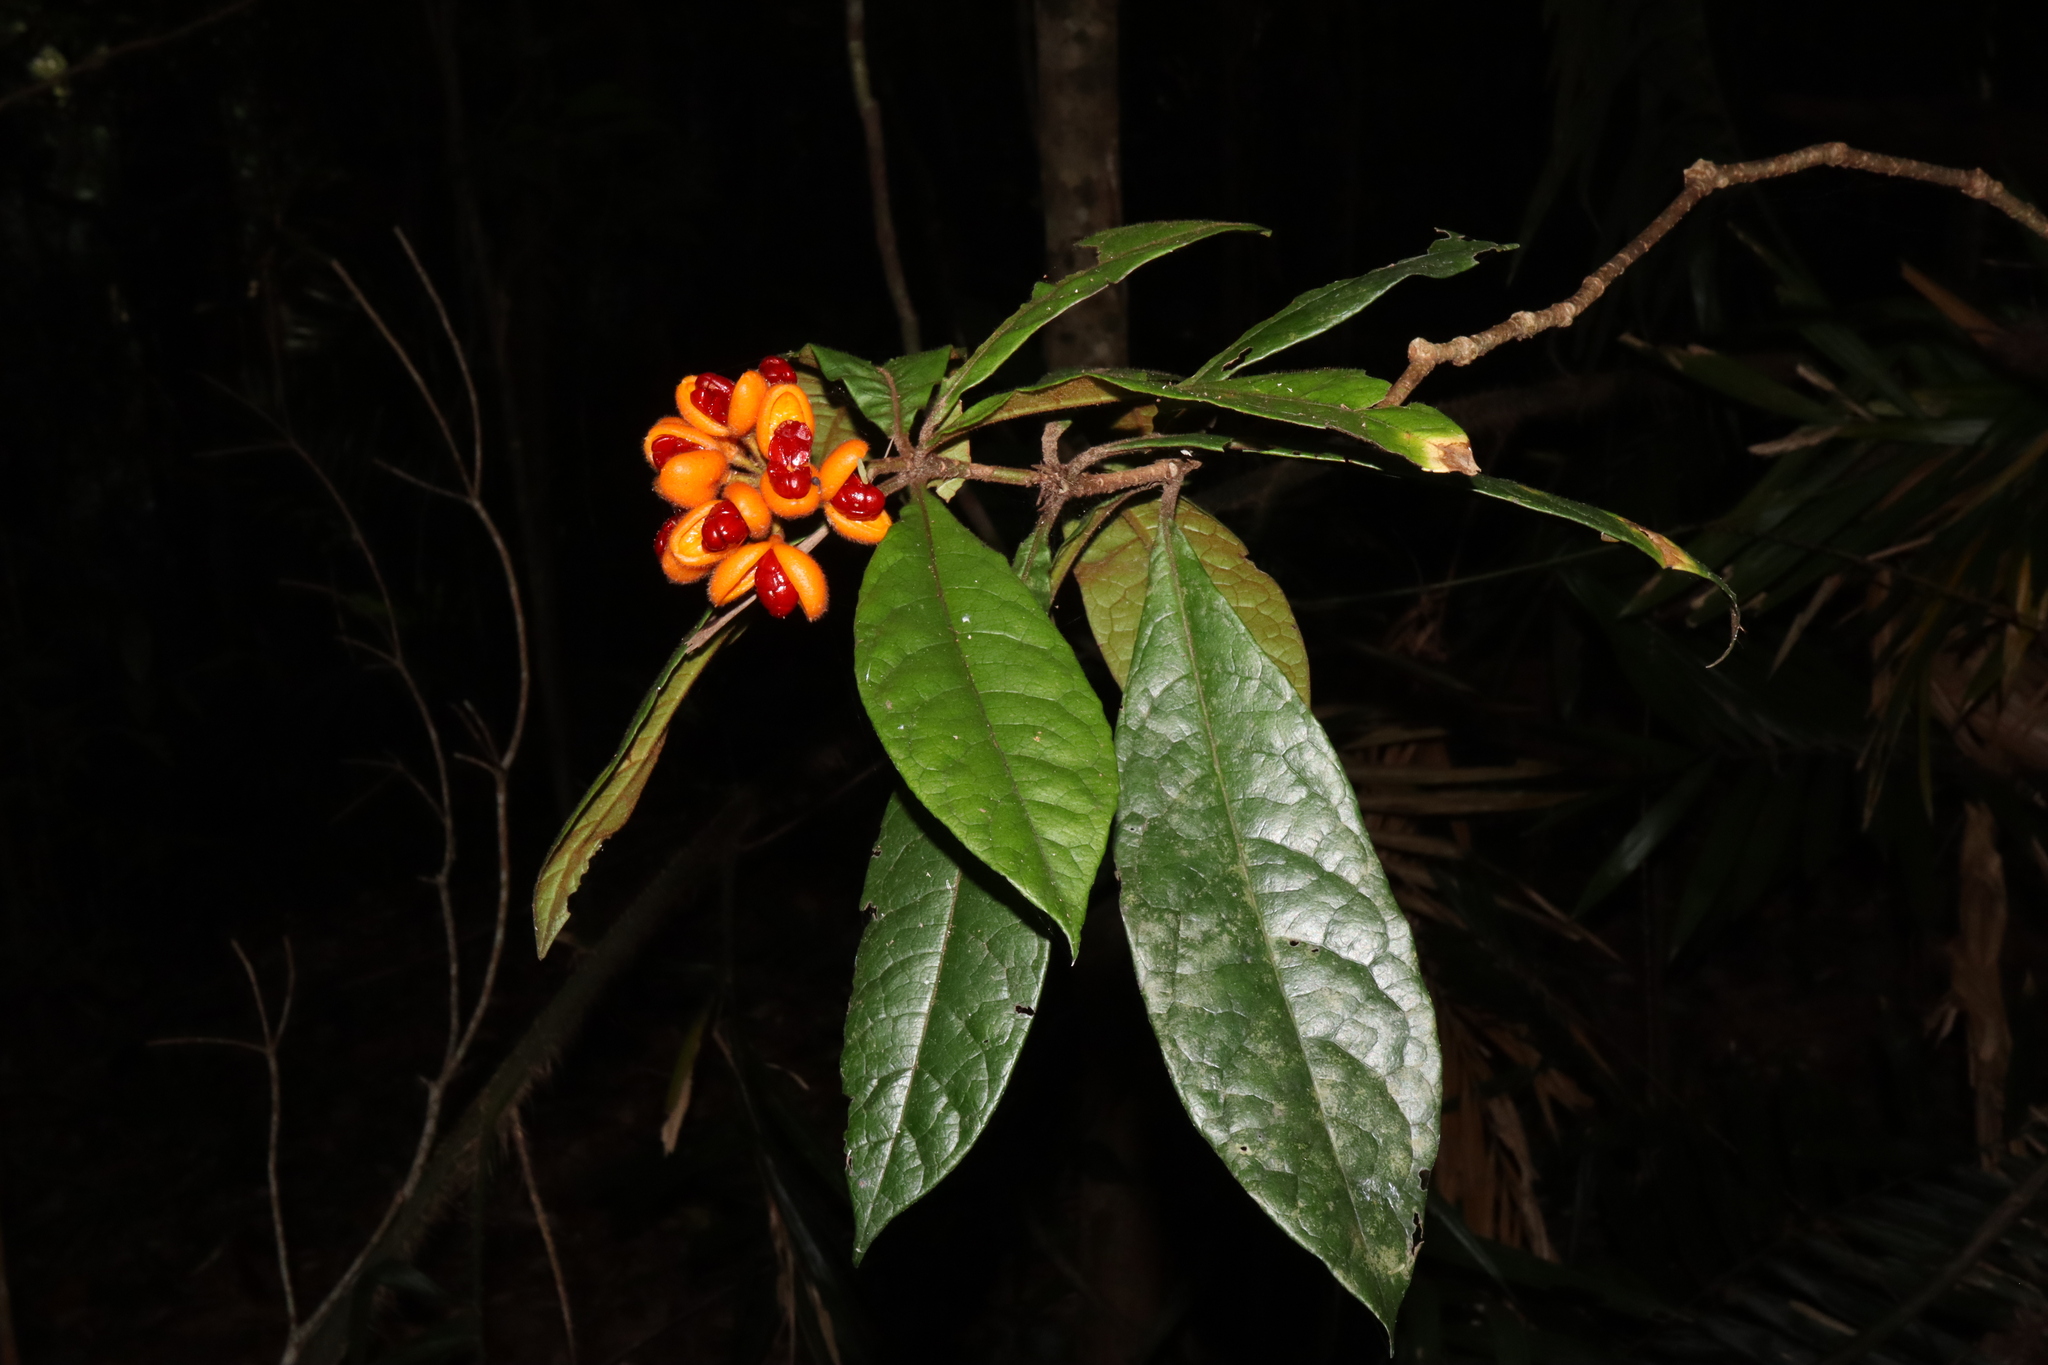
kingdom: Plantae
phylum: Tracheophyta
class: Magnoliopsida
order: Apiales
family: Pittosporaceae
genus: Pittosporum
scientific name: Pittosporum rubiginosum
